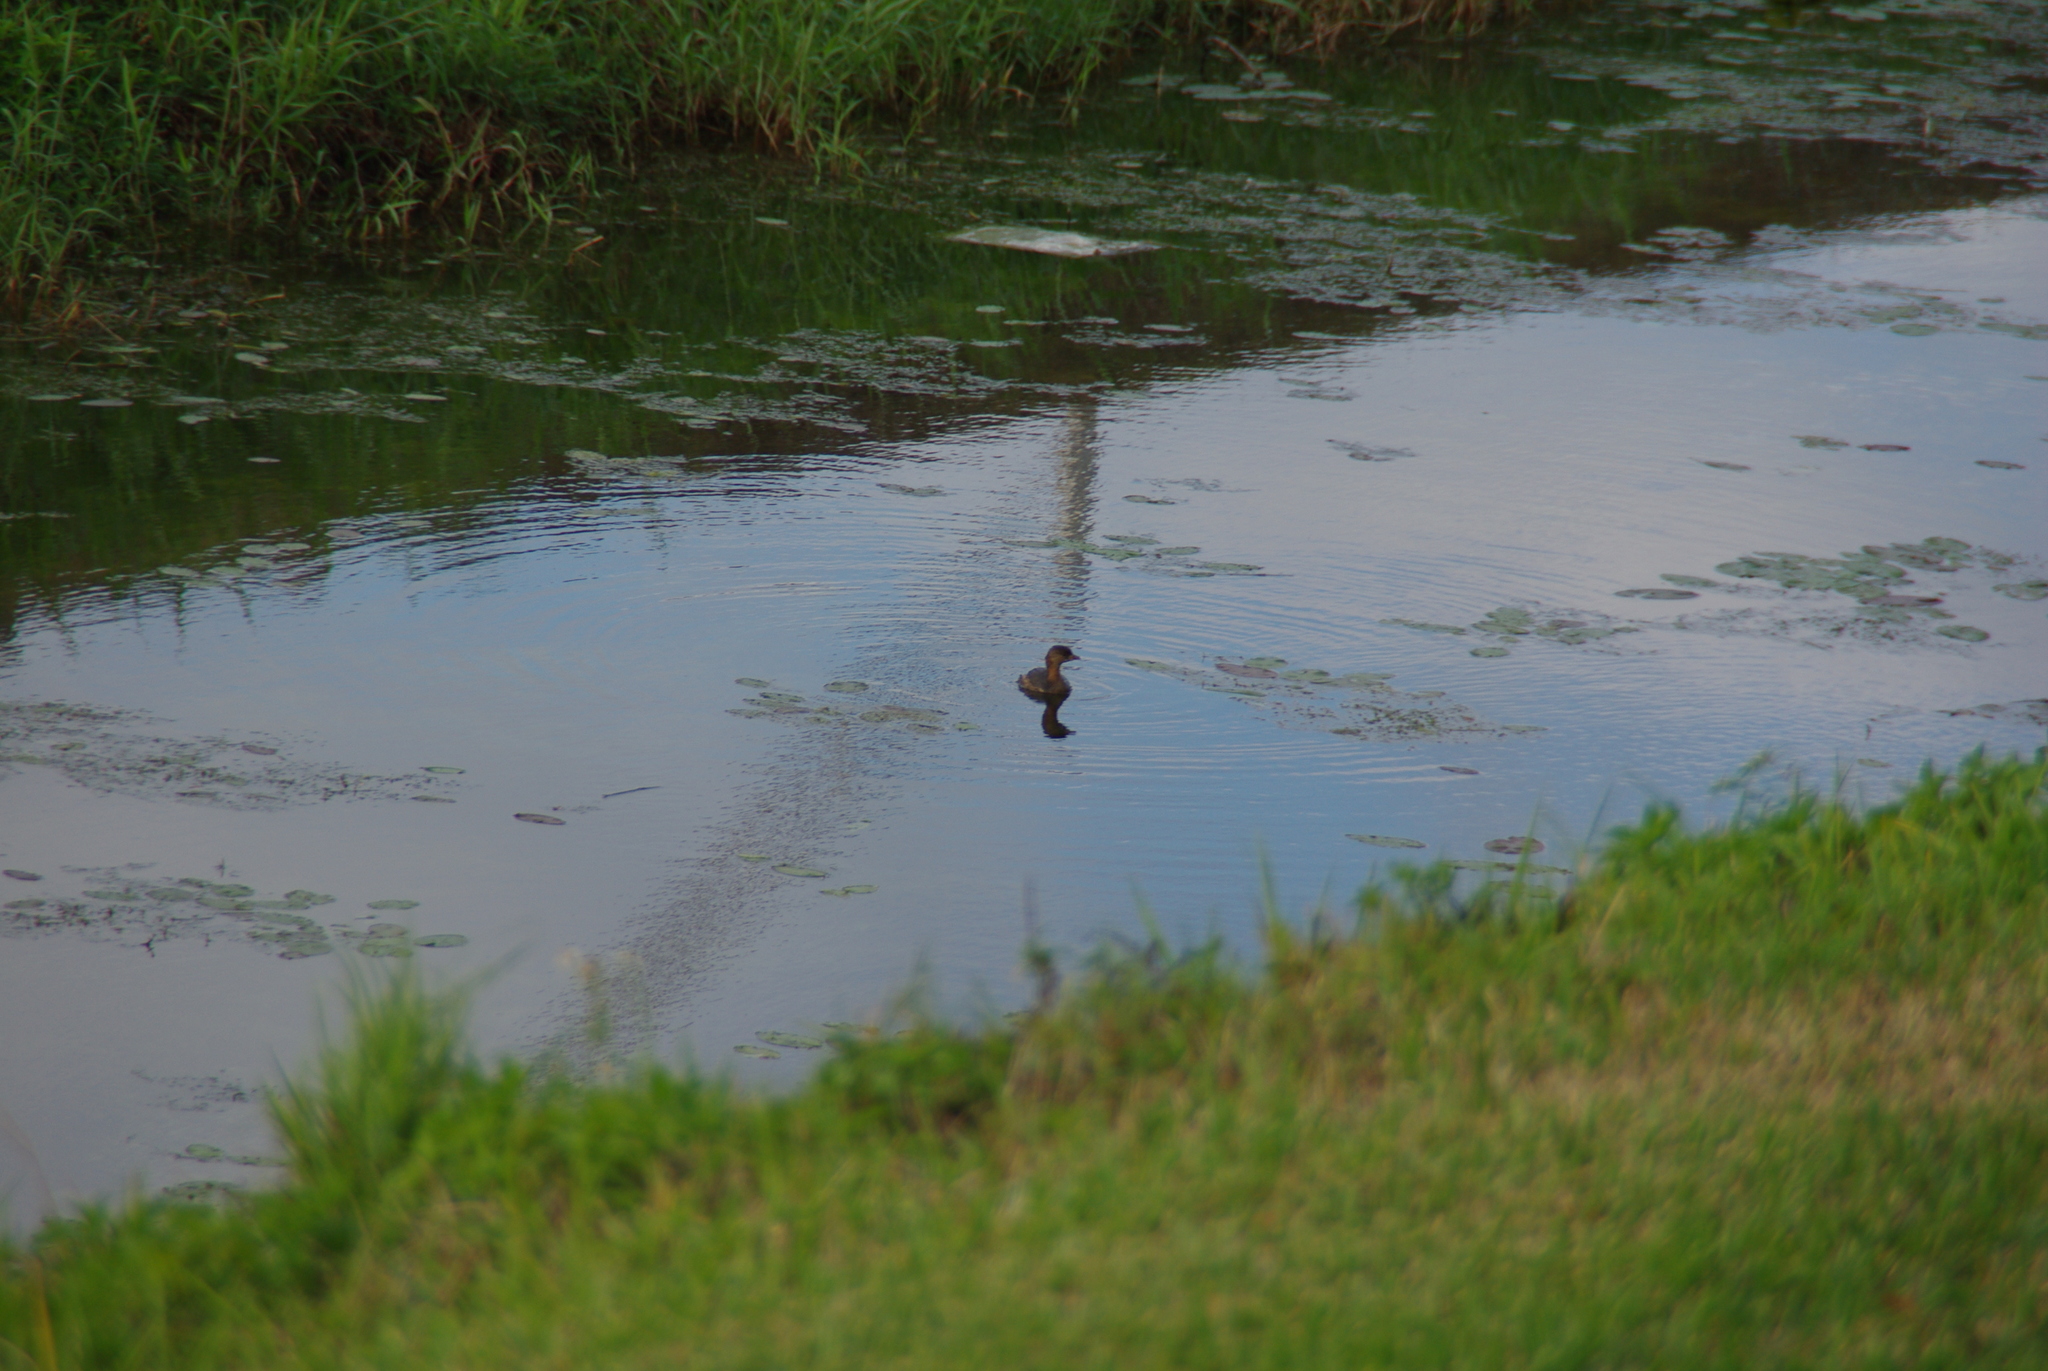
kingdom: Animalia
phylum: Chordata
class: Aves
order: Podicipediformes
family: Podicipedidae
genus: Podilymbus
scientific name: Podilymbus podiceps
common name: Pied-billed grebe
